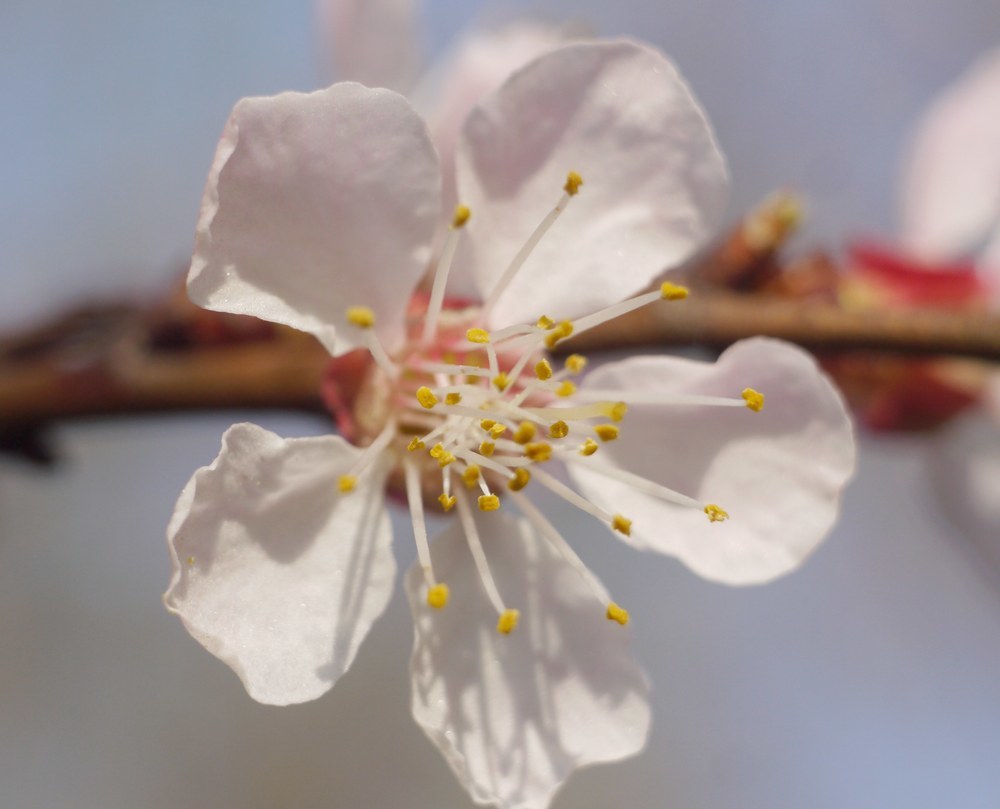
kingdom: Plantae
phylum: Tracheophyta
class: Magnoliopsida
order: Rosales
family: Rosaceae
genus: Prunus
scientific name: Prunus armeniaca
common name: Apricot
